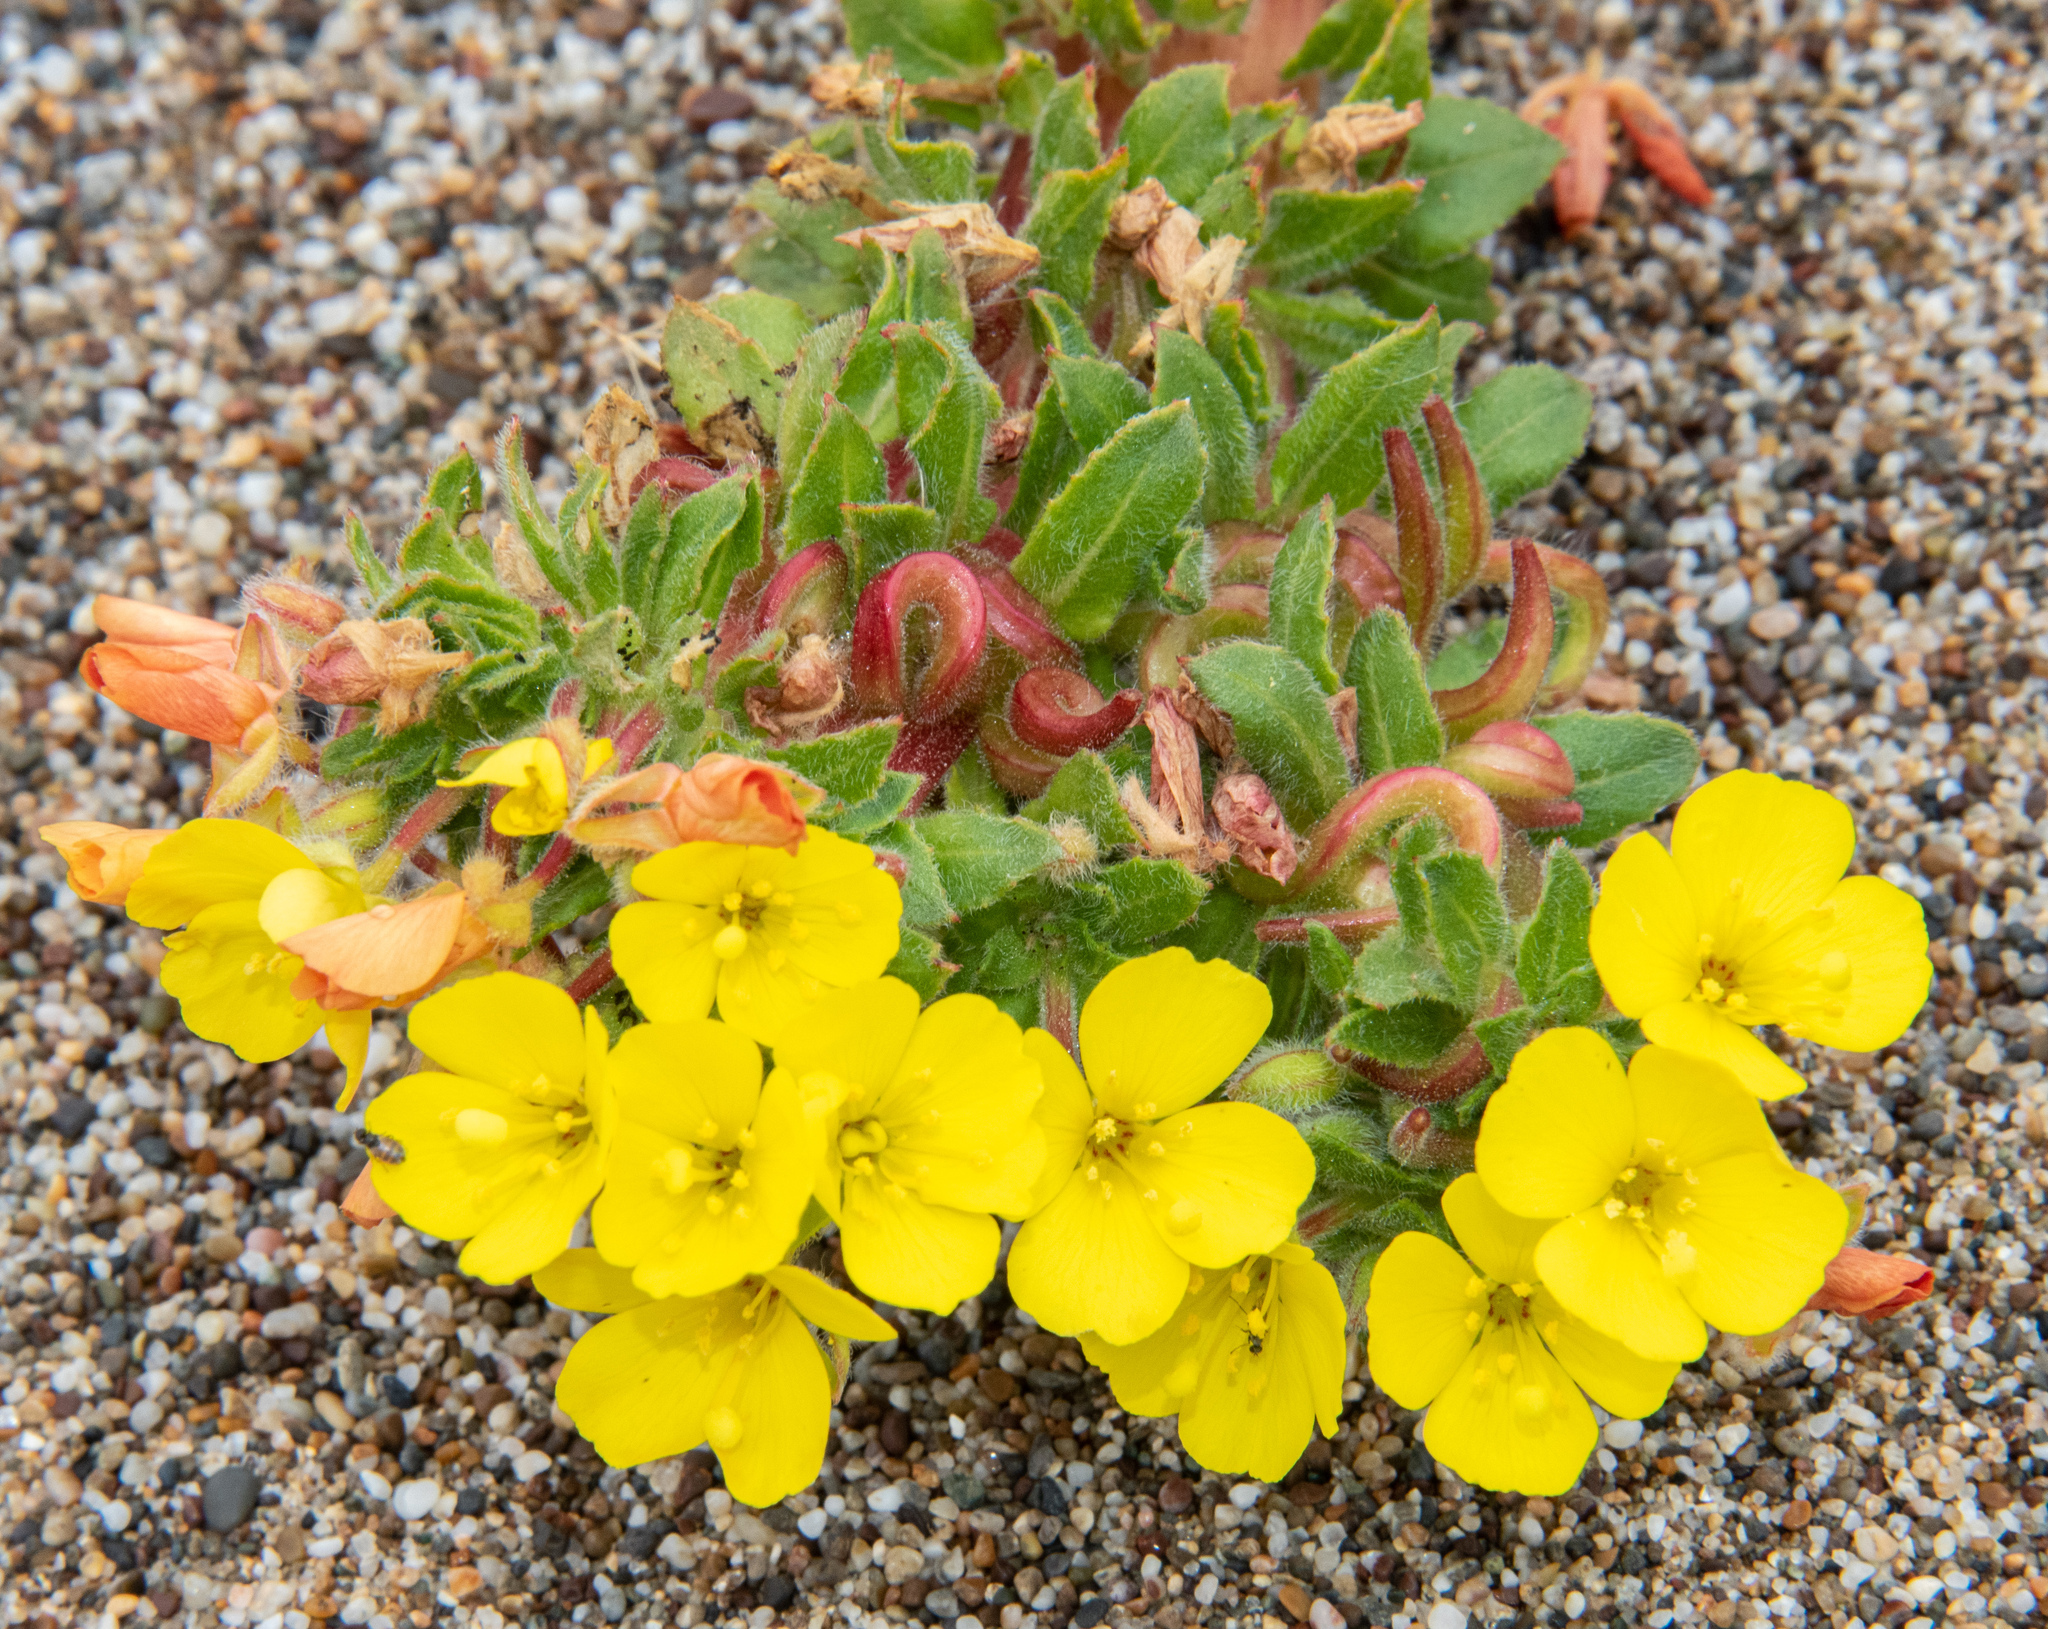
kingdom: Plantae
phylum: Tracheophyta
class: Magnoliopsida
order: Myrtales
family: Onagraceae
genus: Camissoniopsis
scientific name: Camissoniopsis cheiranthifolia
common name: Beach suncup
